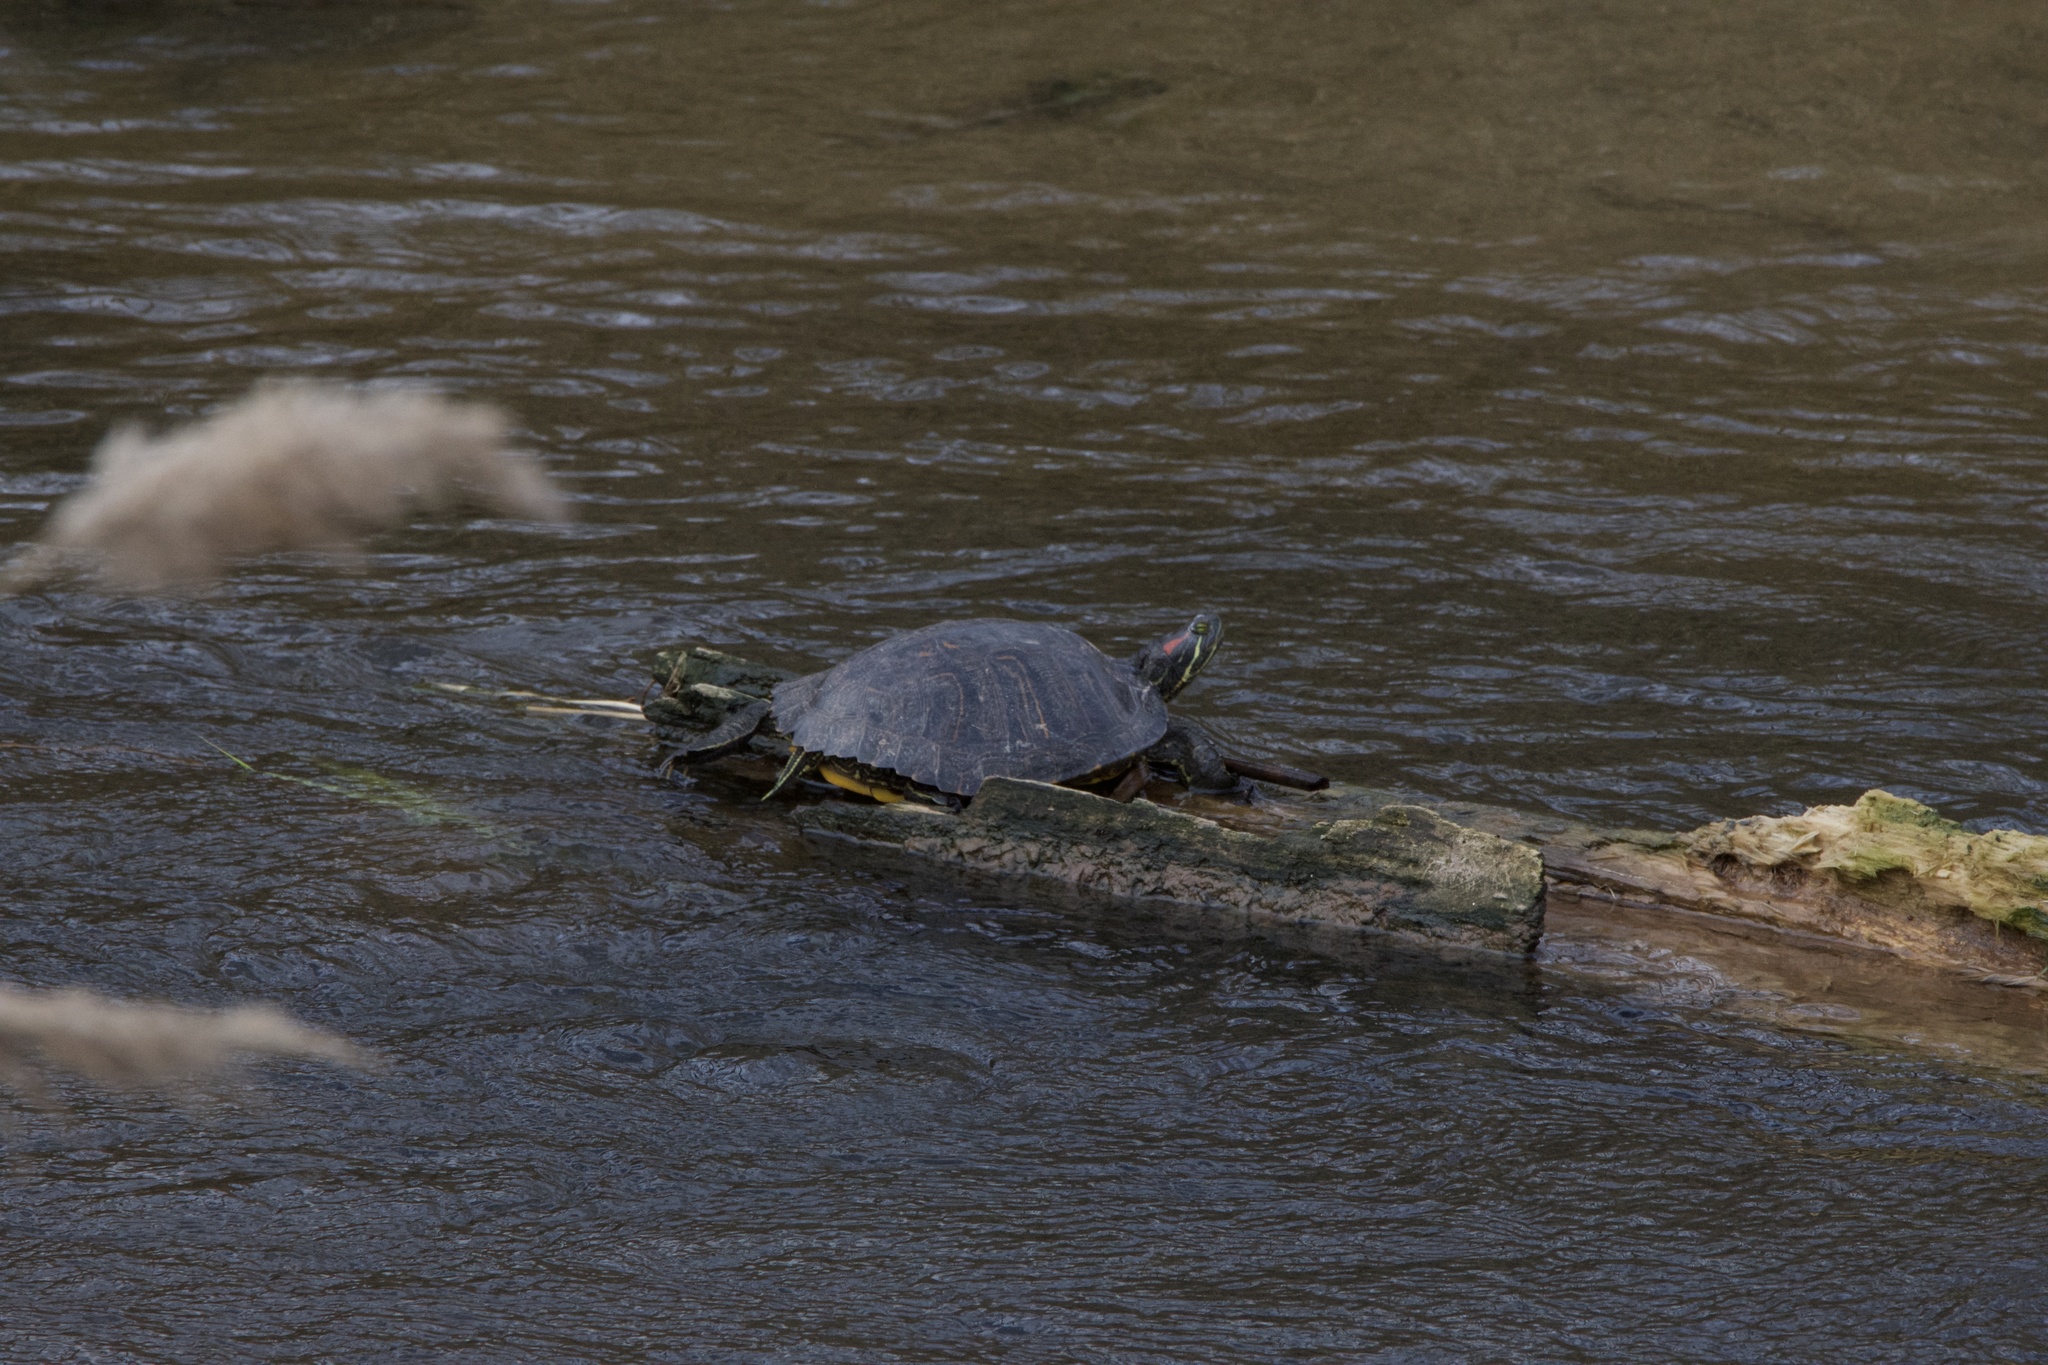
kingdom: Animalia
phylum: Chordata
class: Testudines
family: Emydidae
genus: Trachemys
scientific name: Trachemys scripta
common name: Slider
